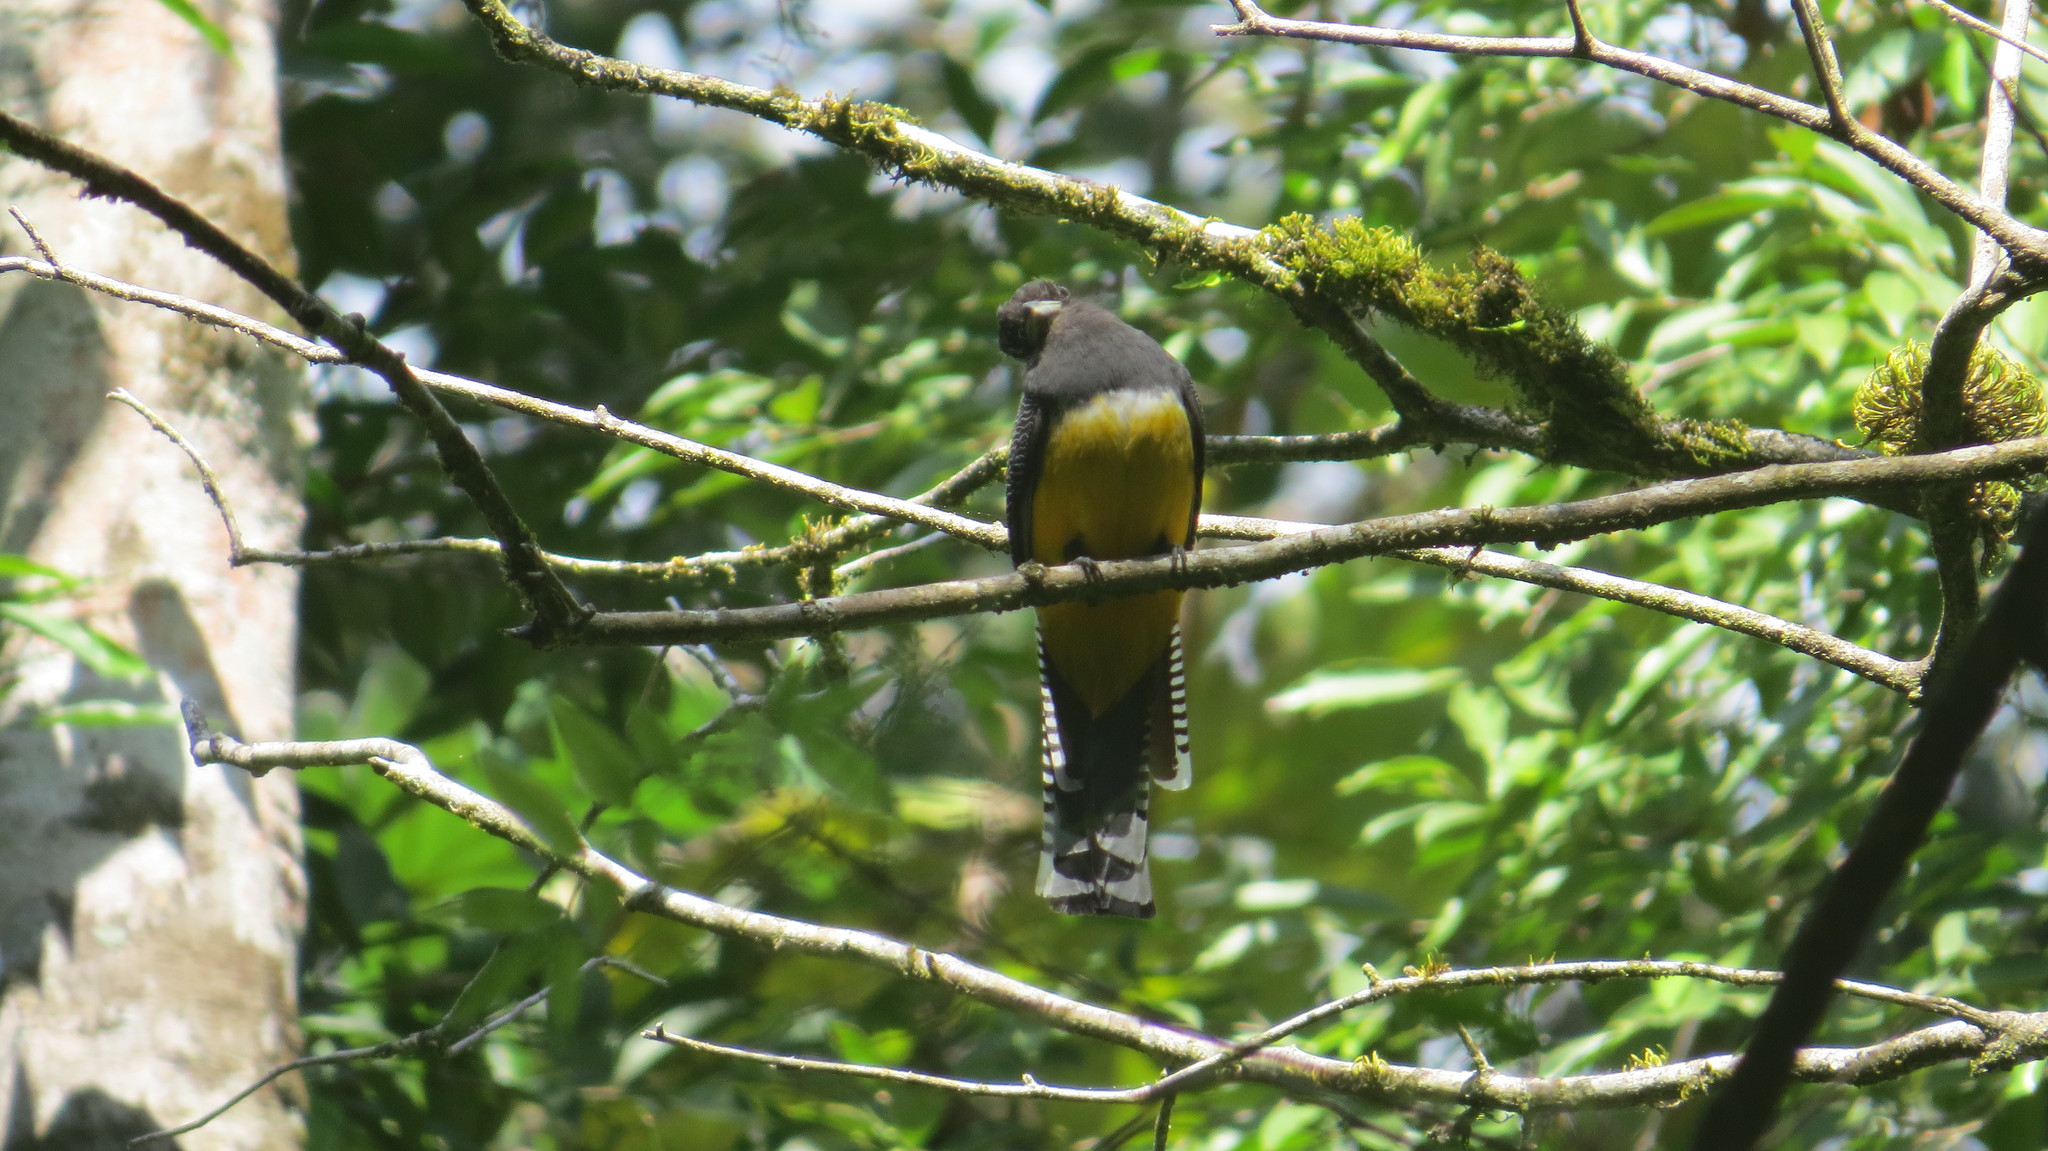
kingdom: Animalia
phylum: Chordata
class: Aves
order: Trogoniformes
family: Trogonidae
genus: Trogon
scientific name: Trogon melanocephalus
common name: Black-headed trogon
